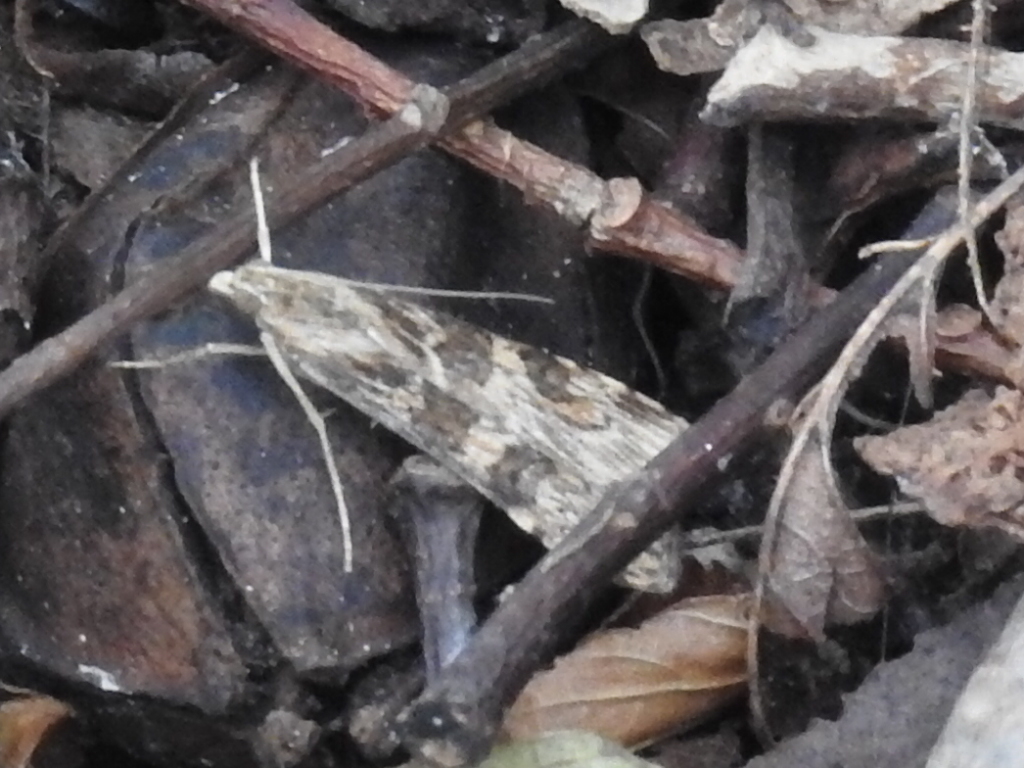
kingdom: Animalia
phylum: Arthropoda
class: Insecta
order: Lepidoptera
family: Crambidae
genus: Nomophila
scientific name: Nomophila nearctica
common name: American rush veneer
